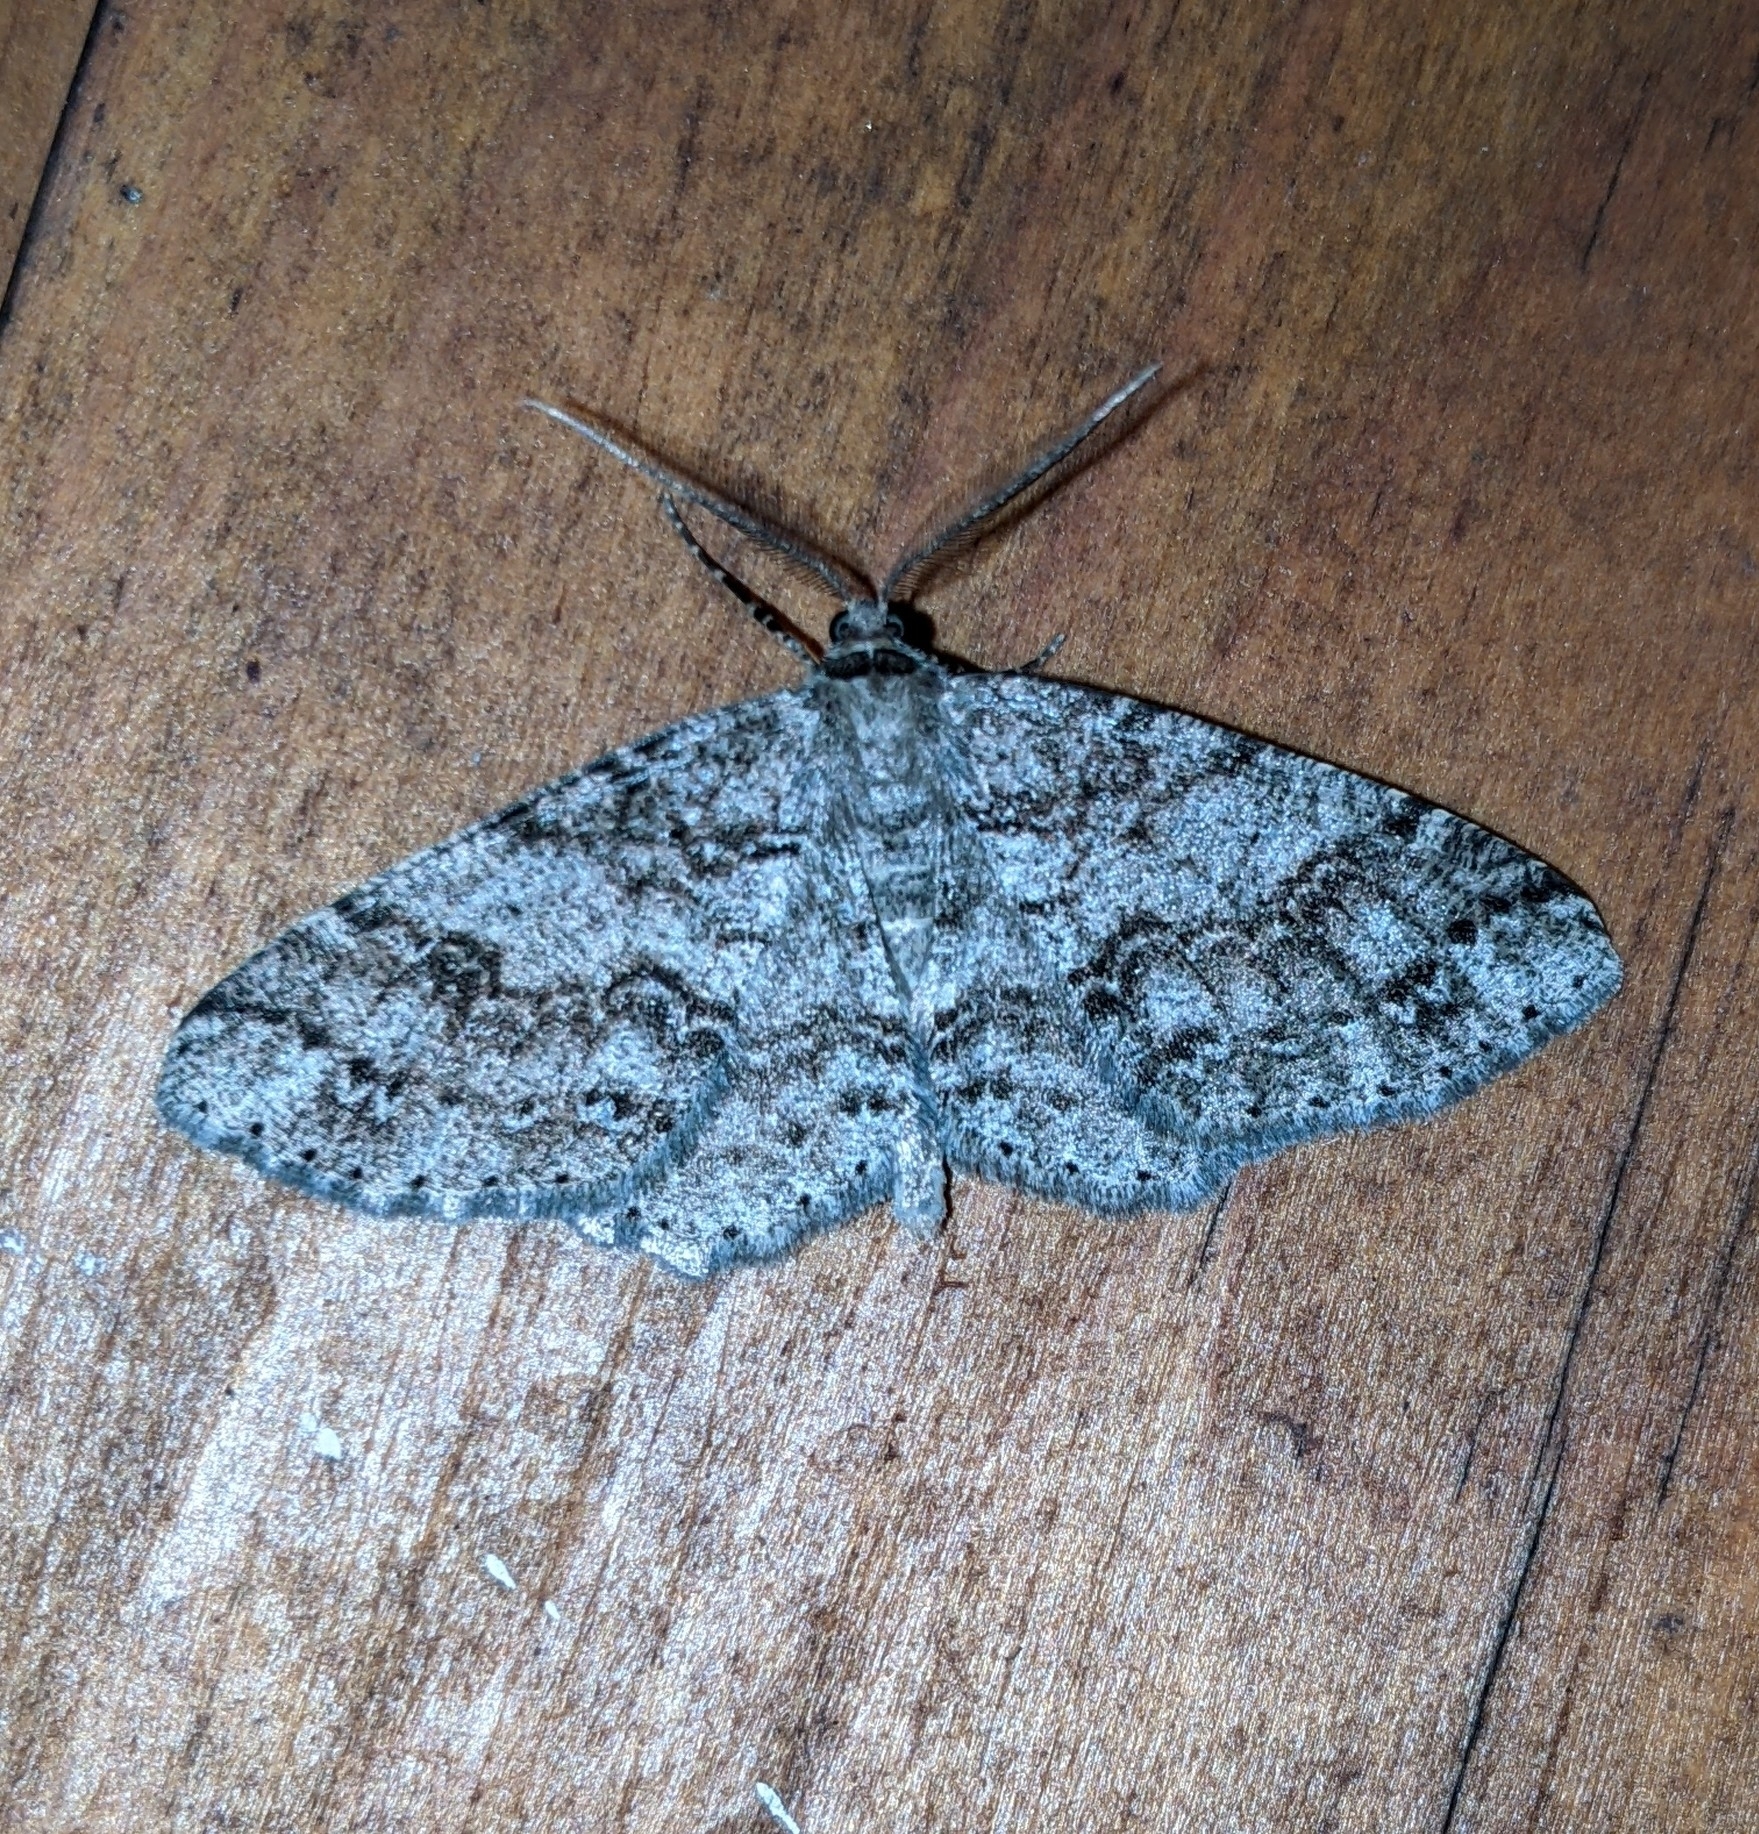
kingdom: Animalia
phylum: Arthropoda
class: Insecta
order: Lepidoptera
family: Geometridae
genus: Melanolophia
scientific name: Melanolophia imitata
